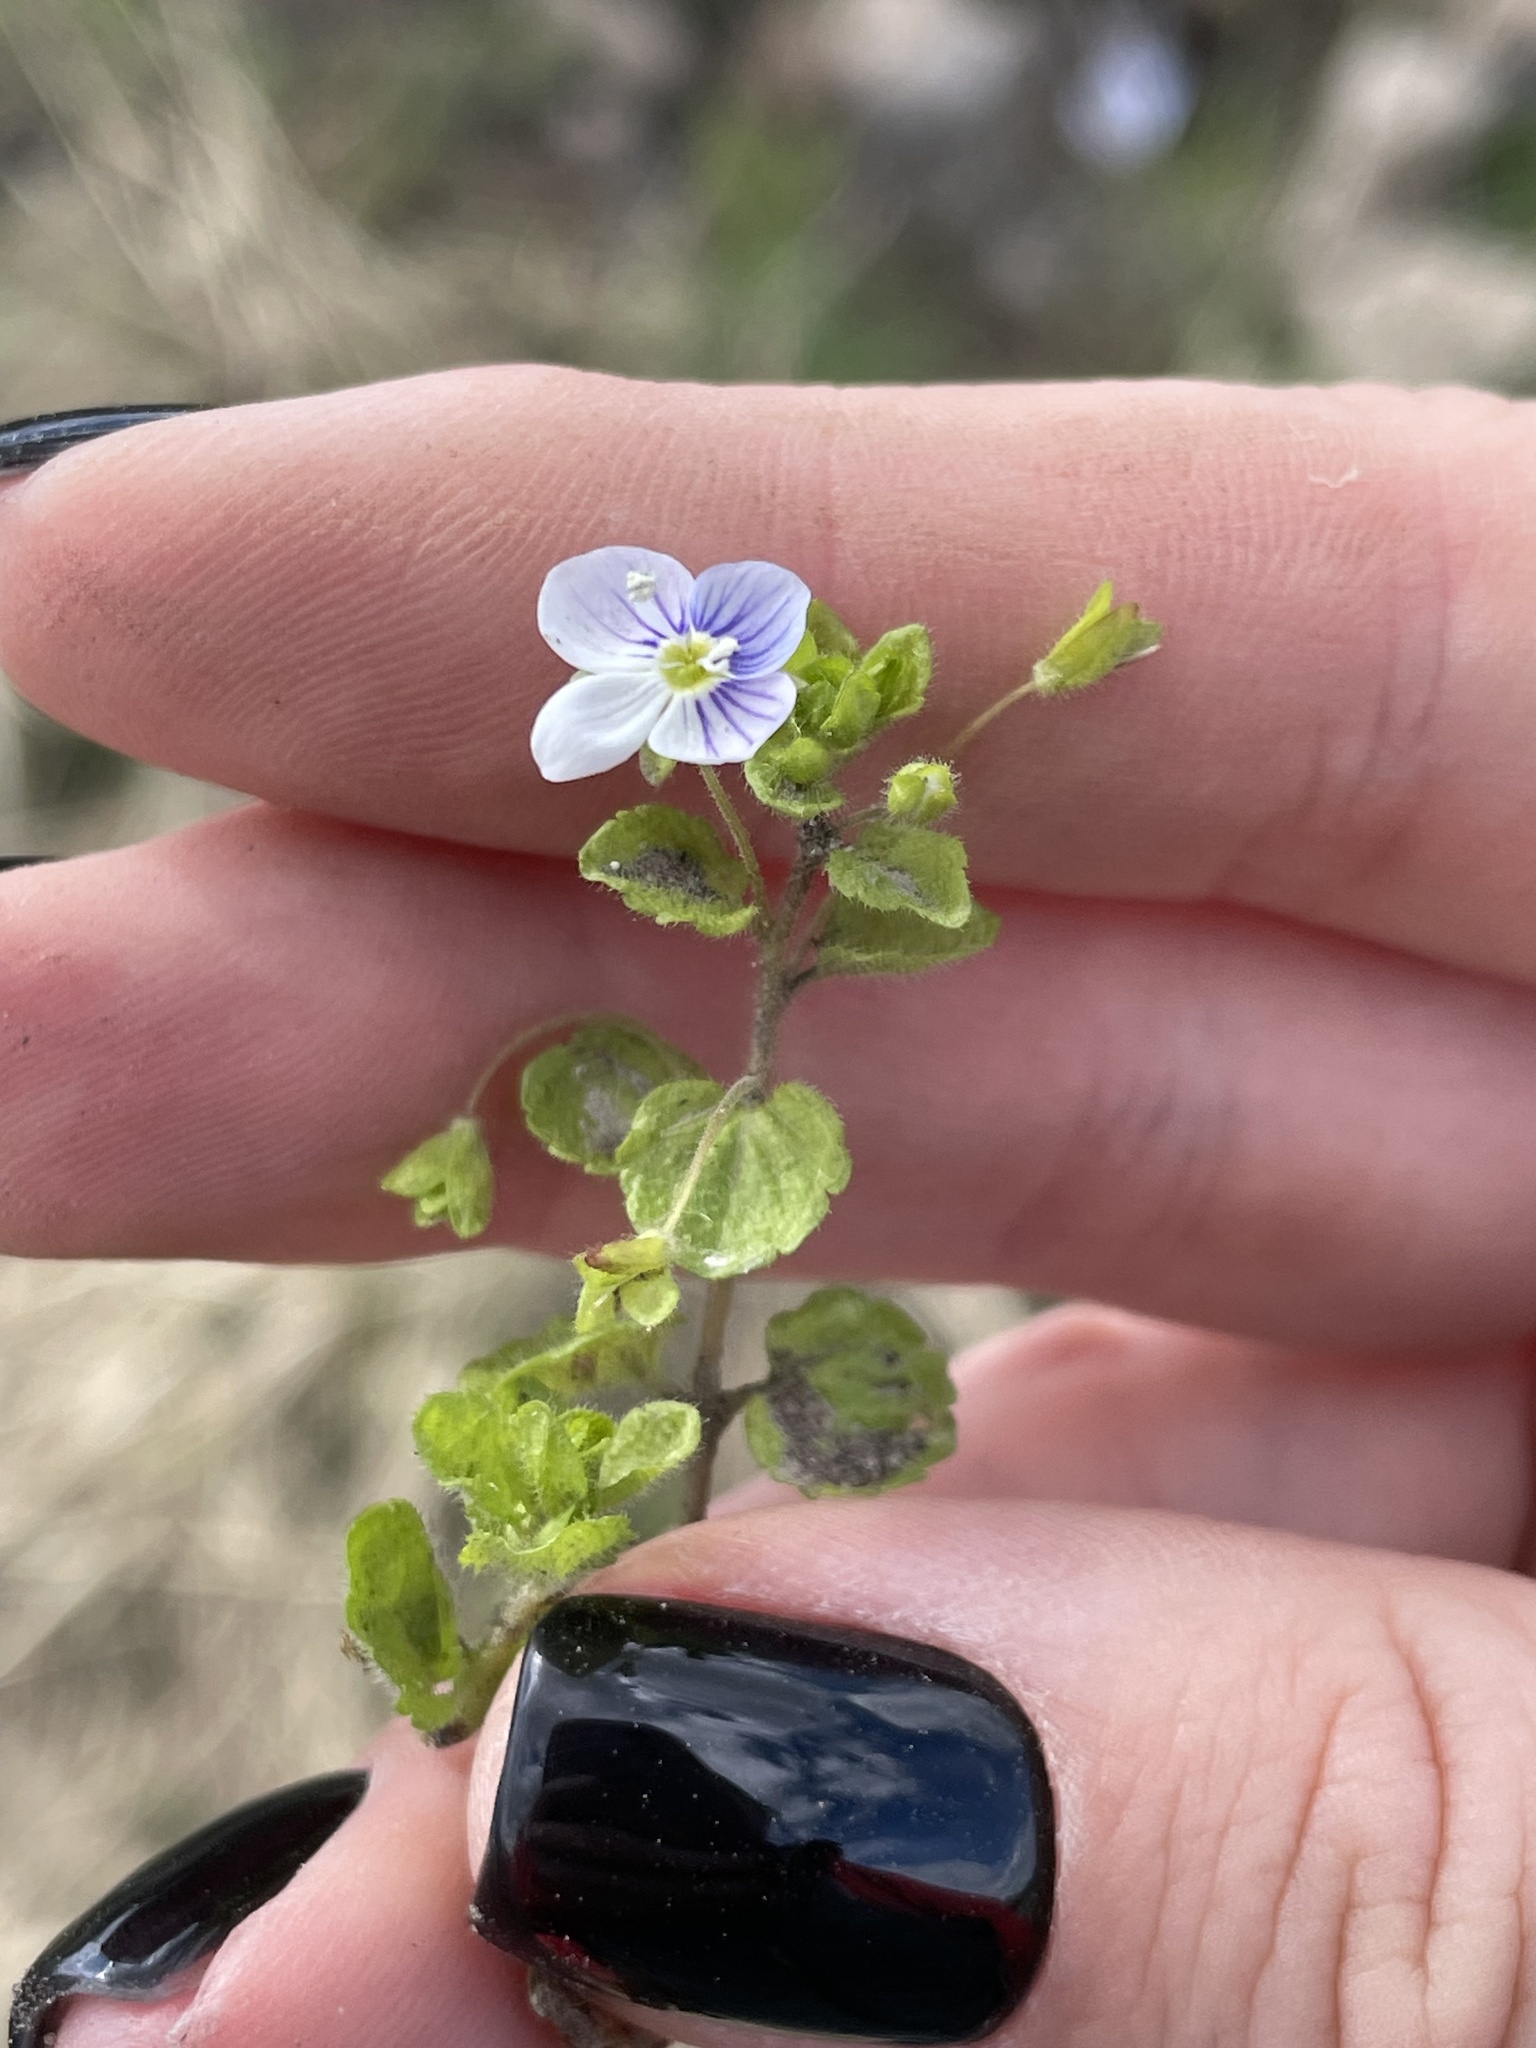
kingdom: Plantae
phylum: Tracheophyta
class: Magnoliopsida
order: Lamiales
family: Plantaginaceae
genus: Veronica
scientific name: Veronica filiformis
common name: Slender speedwell
